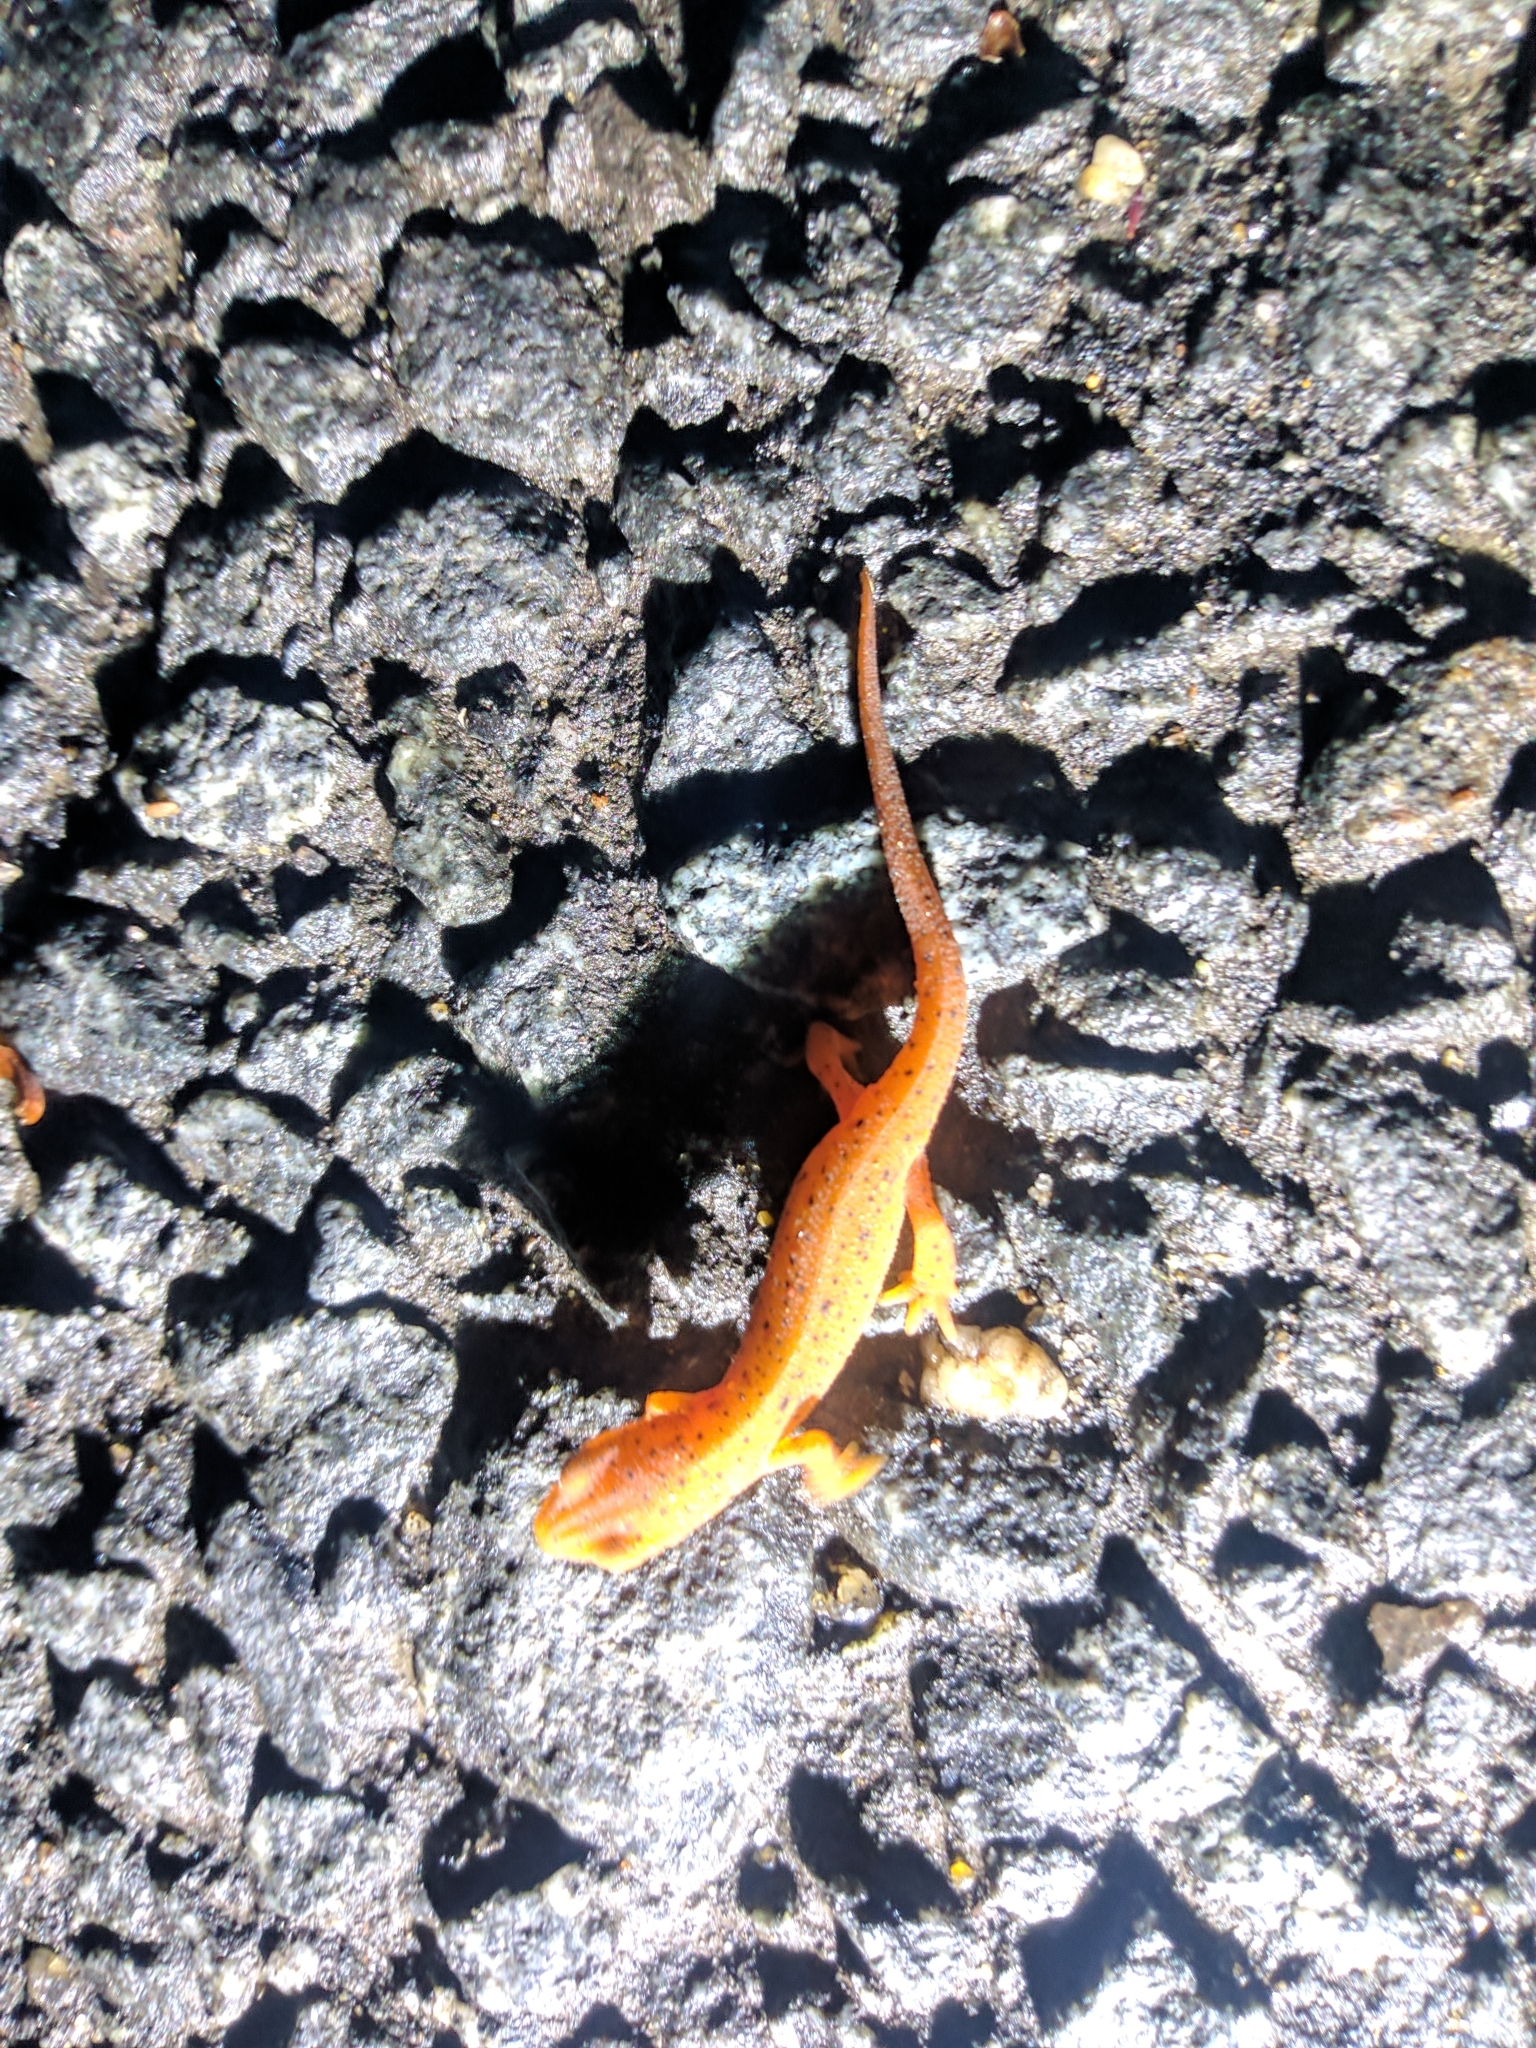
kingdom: Animalia
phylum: Chordata
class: Amphibia
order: Caudata
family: Salamandridae
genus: Notophthalmus
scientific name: Notophthalmus viridescens
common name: Eastern newt
